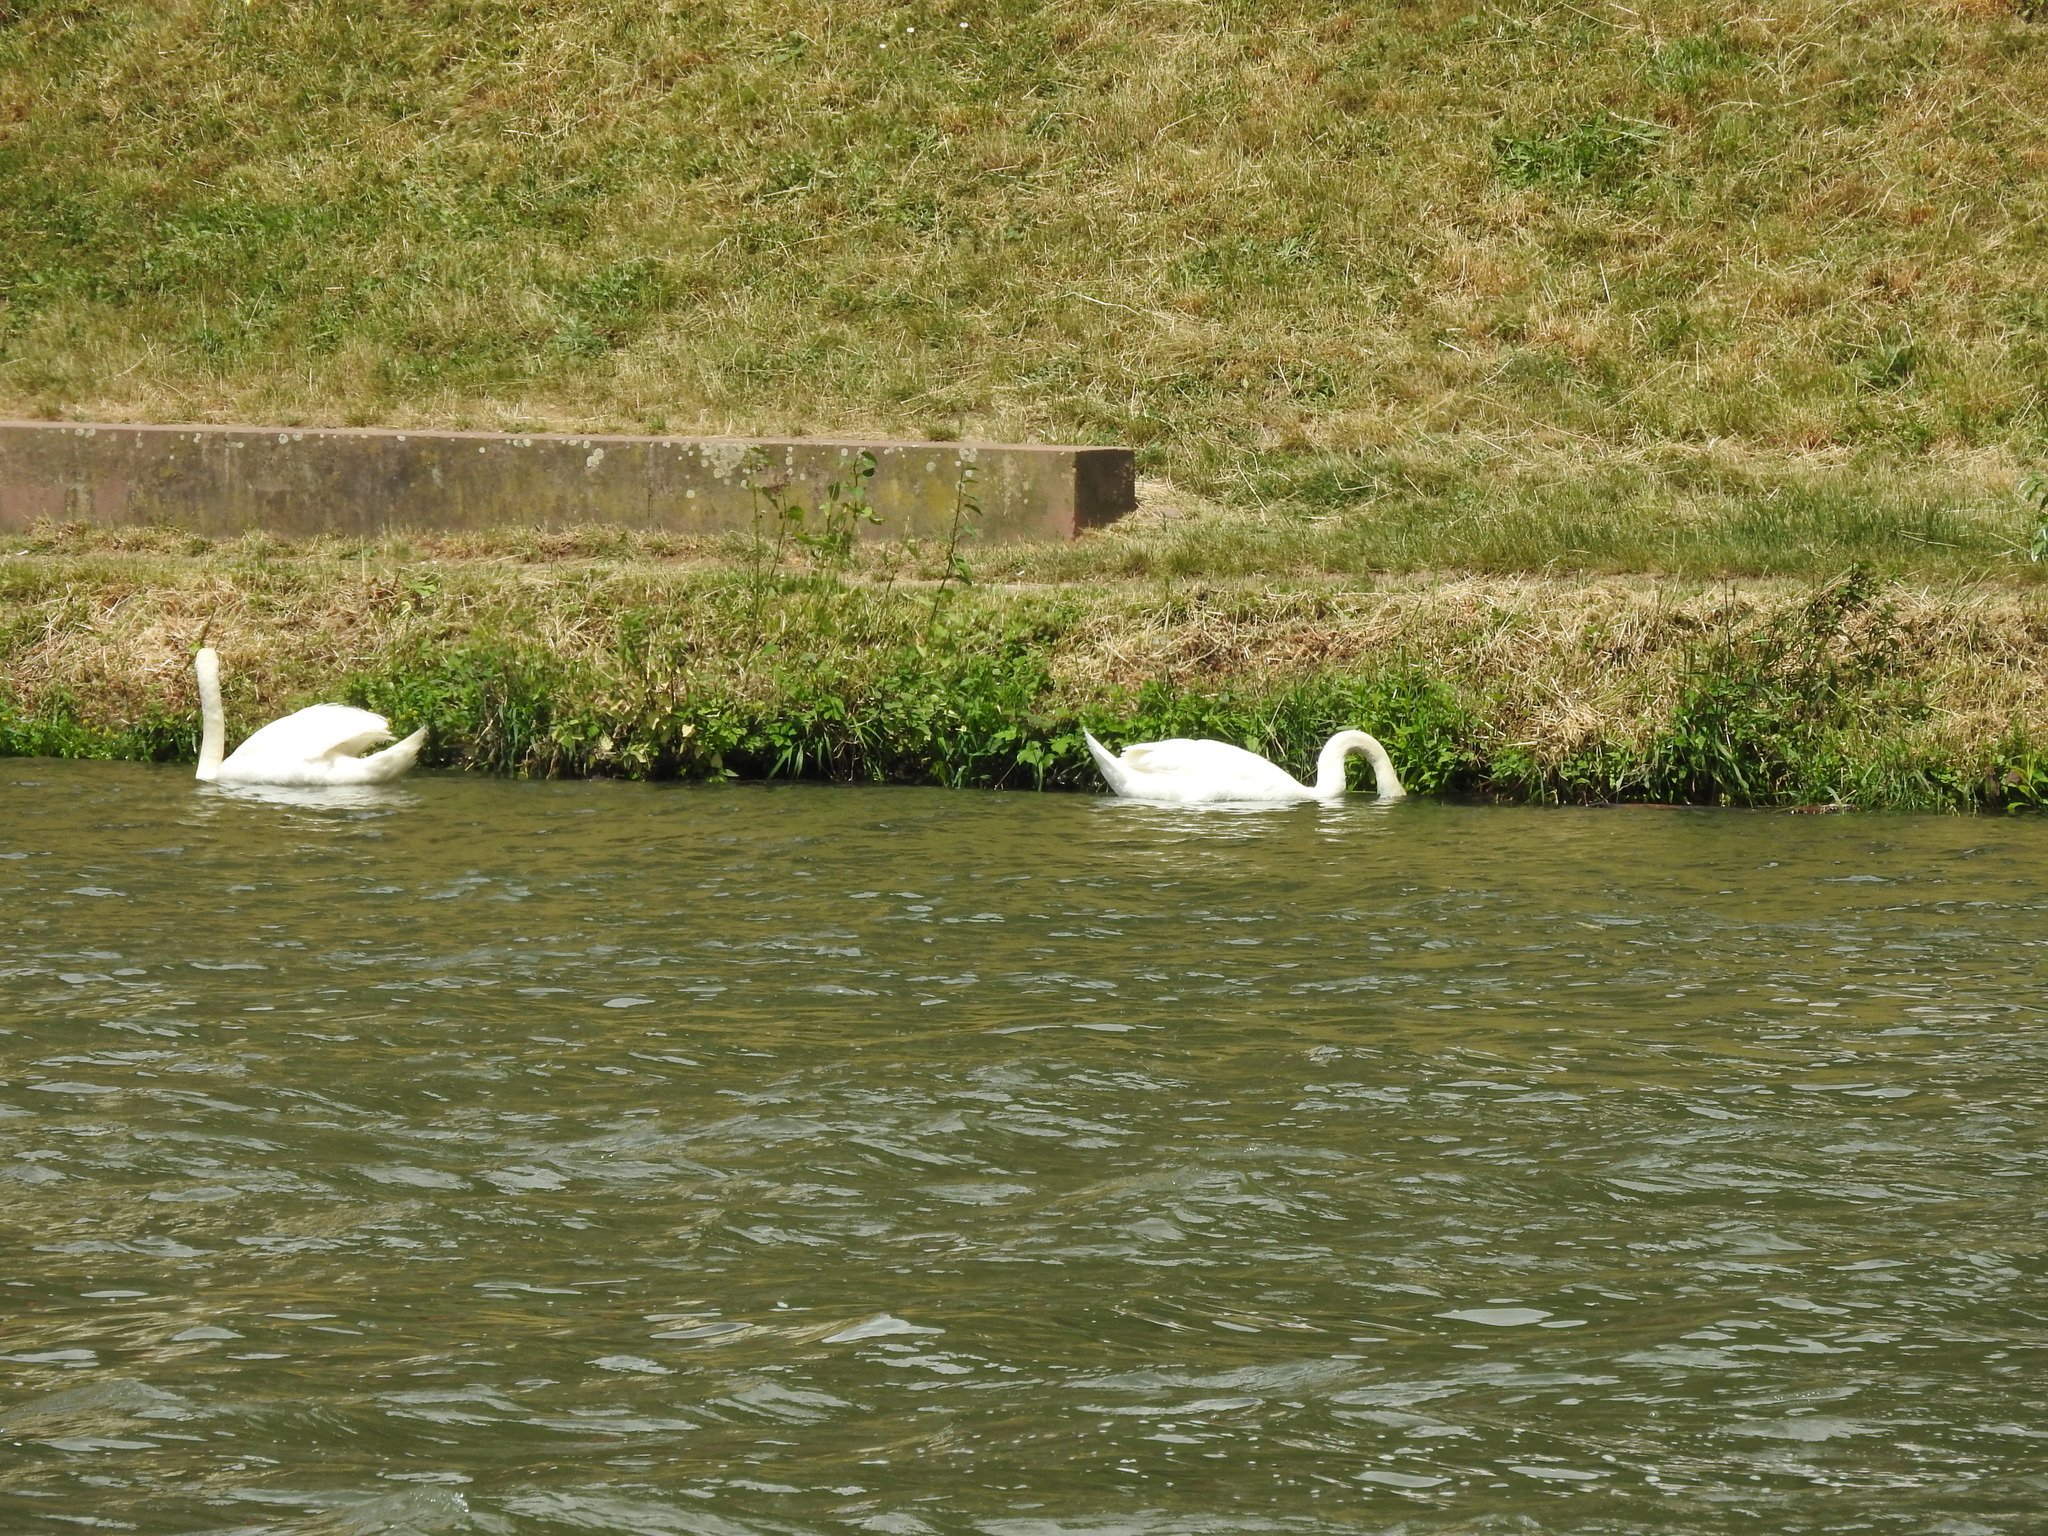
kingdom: Animalia
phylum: Chordata
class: Aves
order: Anseriformes
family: Anatidae
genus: Cygnus
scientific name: Cygnus olor
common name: Mute swan
